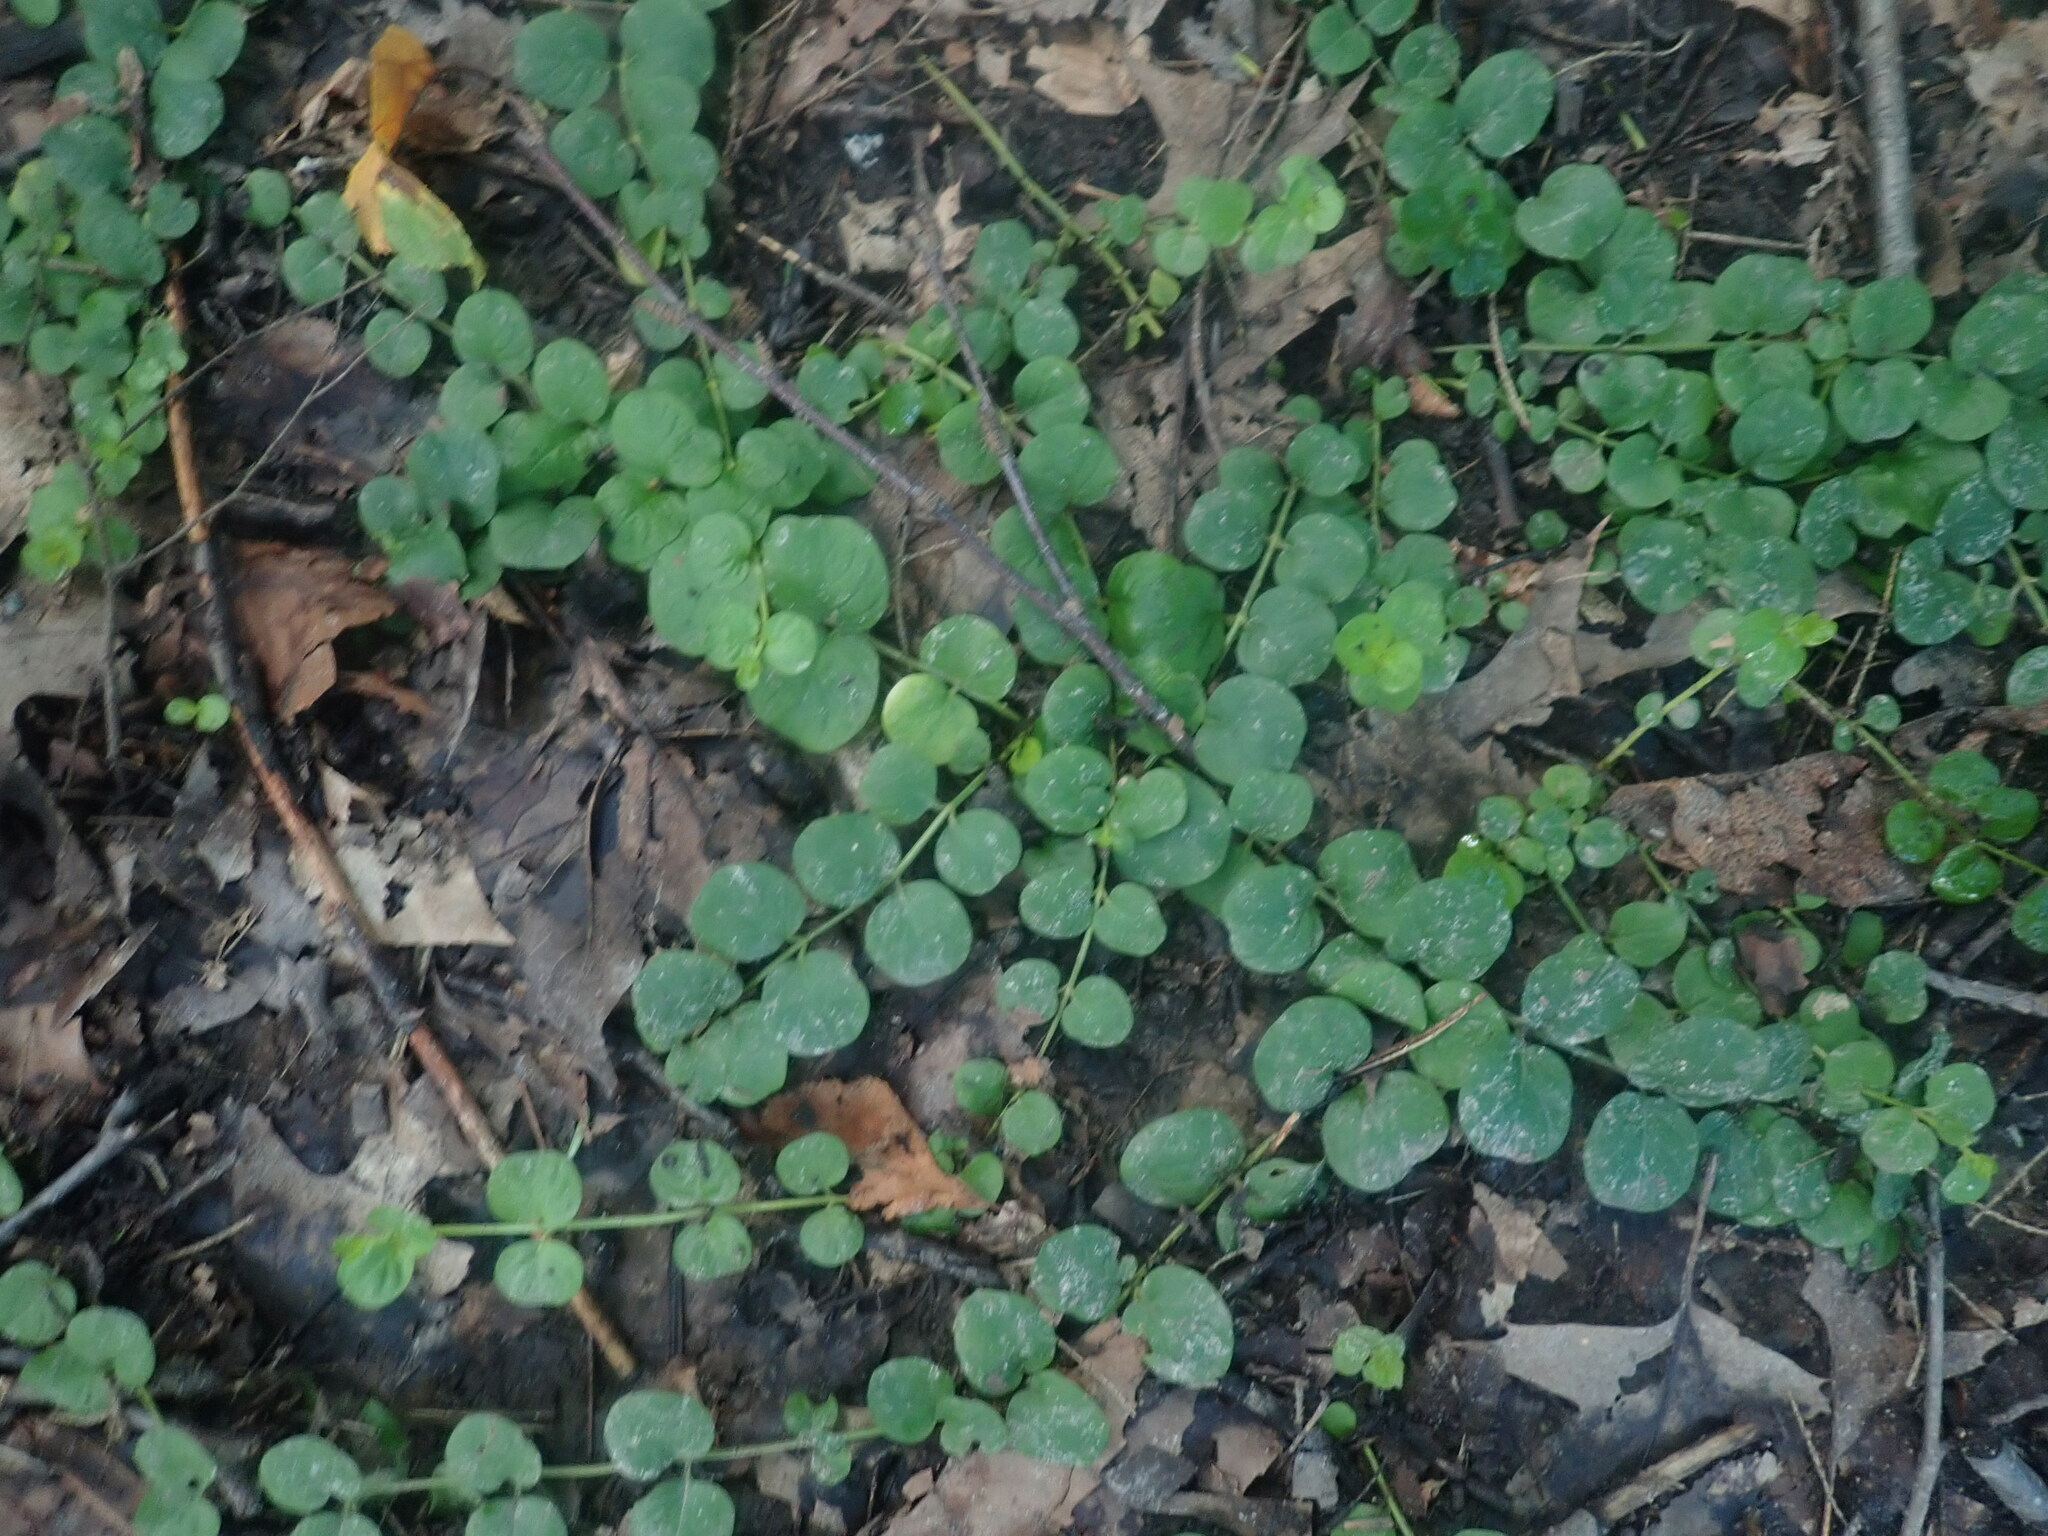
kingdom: Plantae
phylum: Tracheophyta
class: Magnoliopsida
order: Ericales
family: Primulaceae
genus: Lysimachia
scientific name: Lysimachia nummularia
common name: Moneywort
